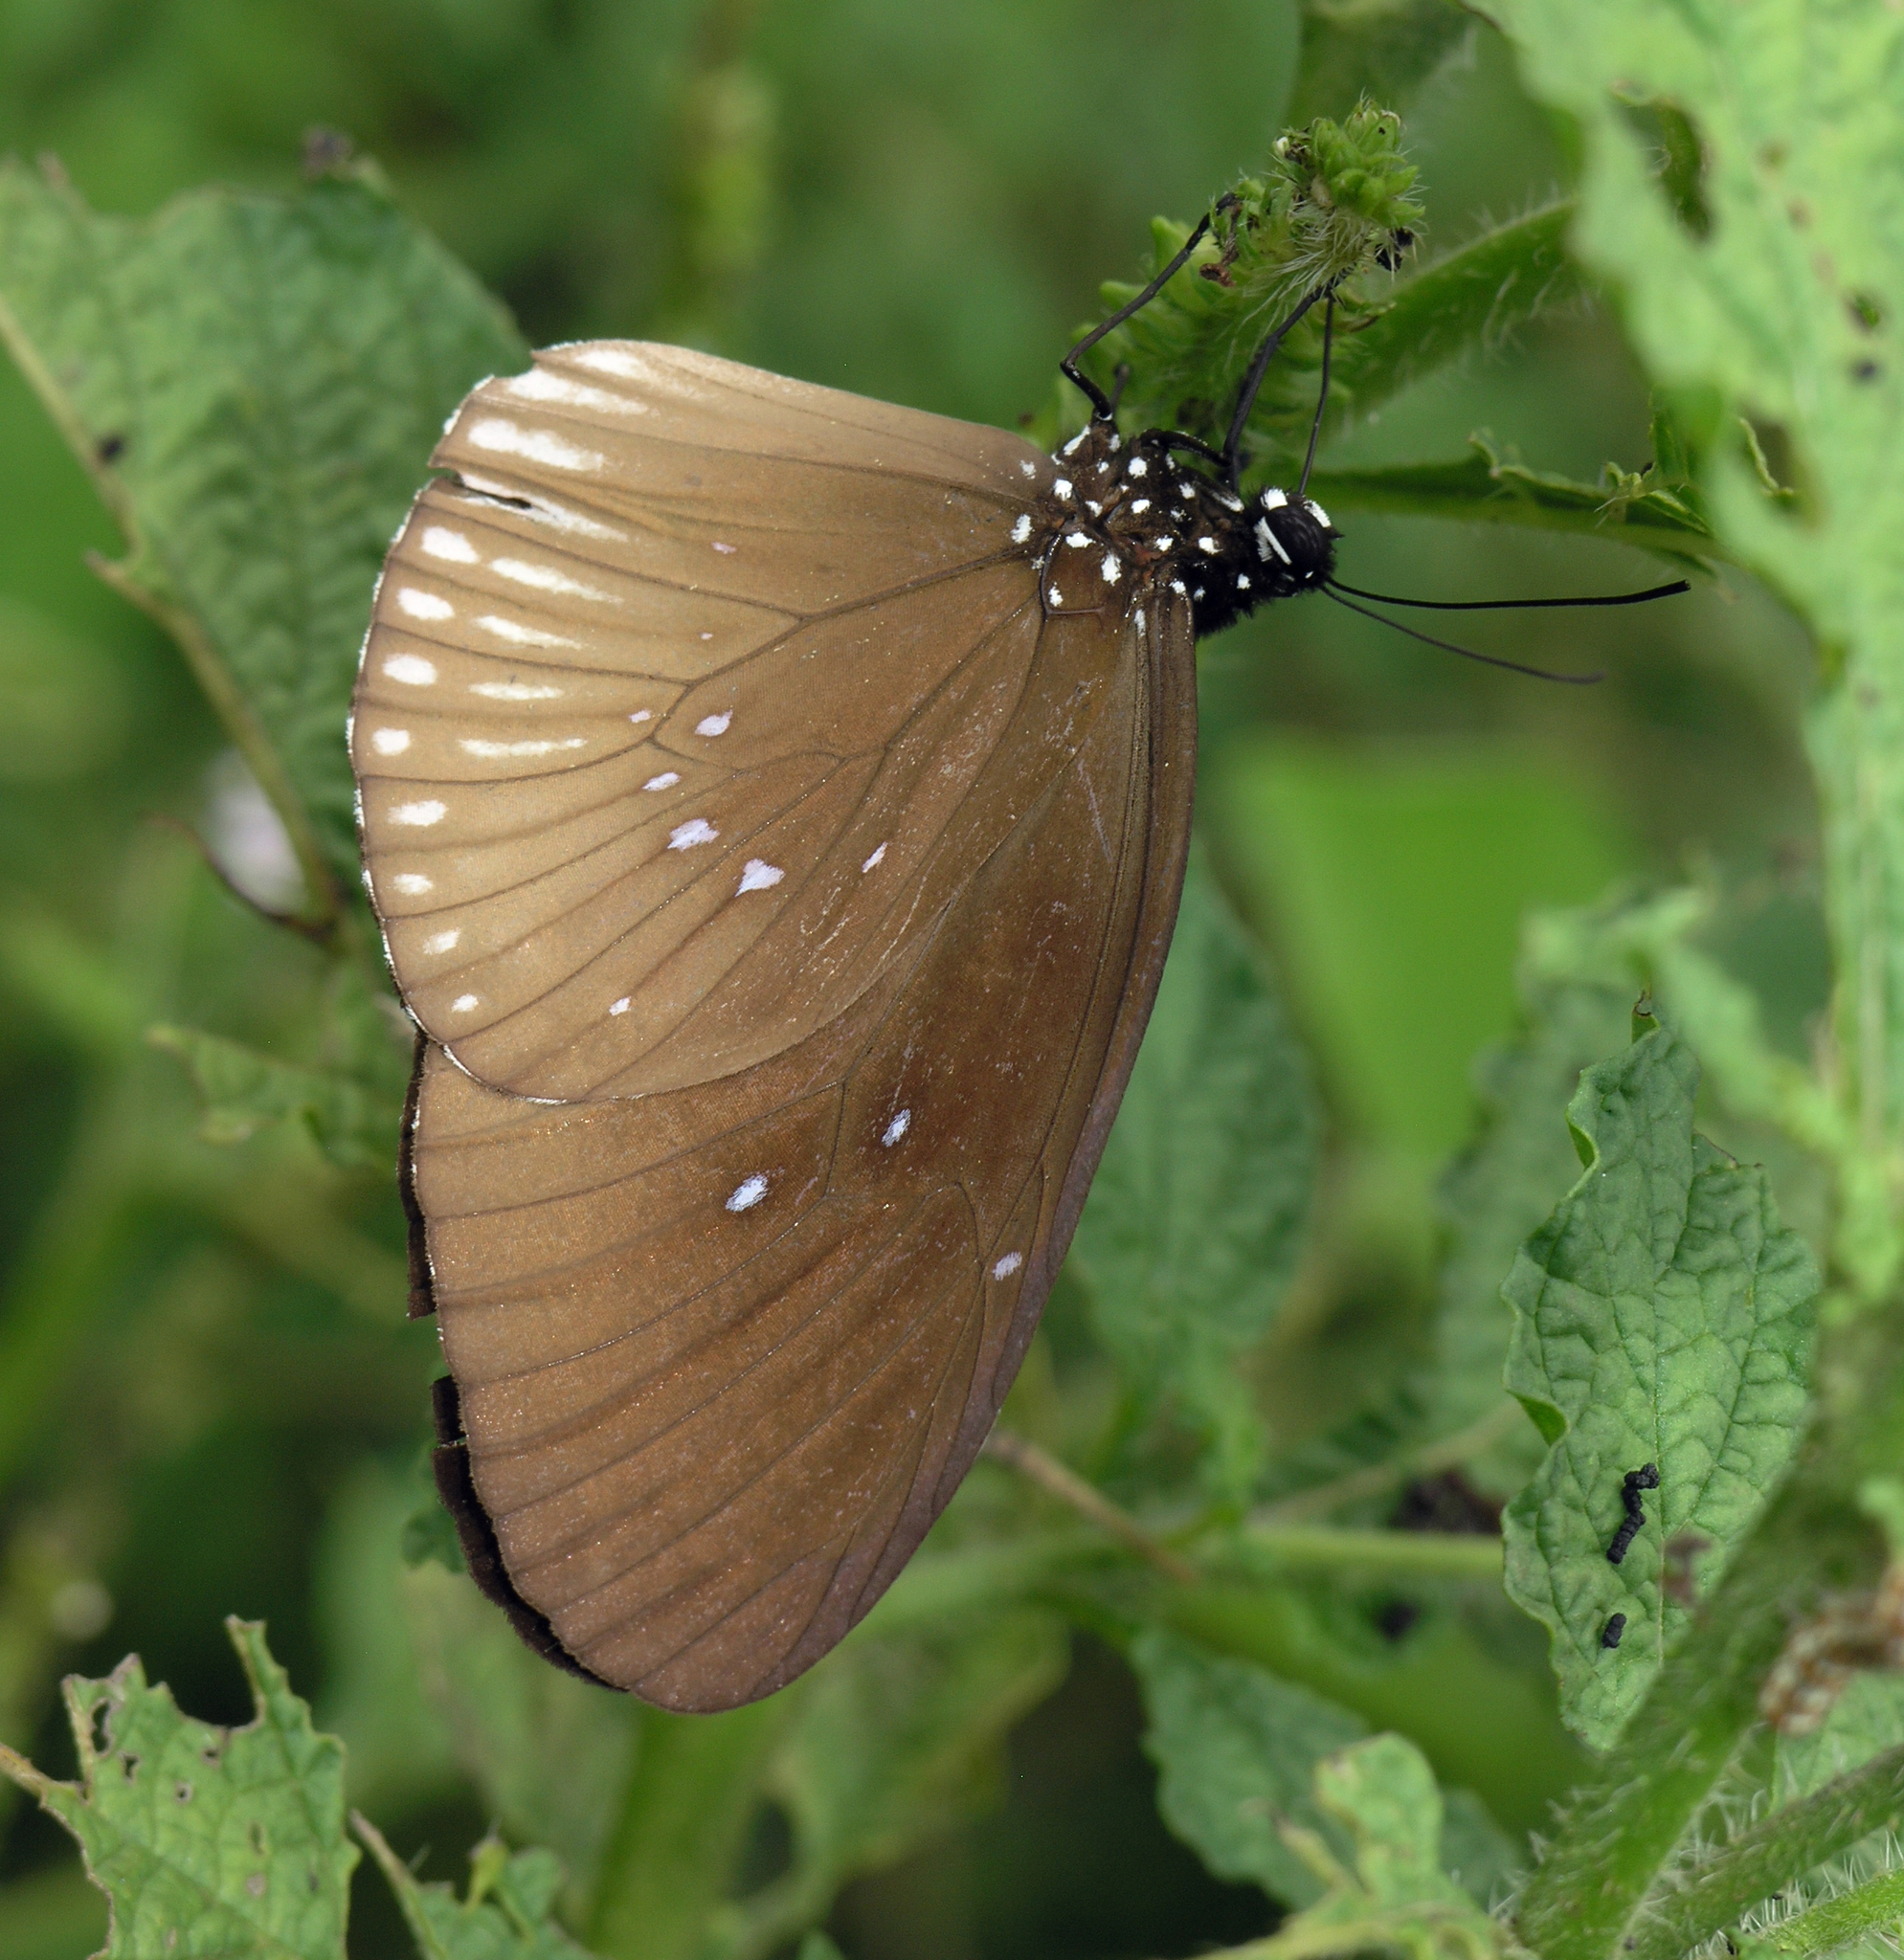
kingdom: Animalia
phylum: Arthropoda
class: Insecta
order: Lepidoptera
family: Nymphalidae
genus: Euploea
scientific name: Euploea eyndhovii
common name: Striped black crow butterfly
